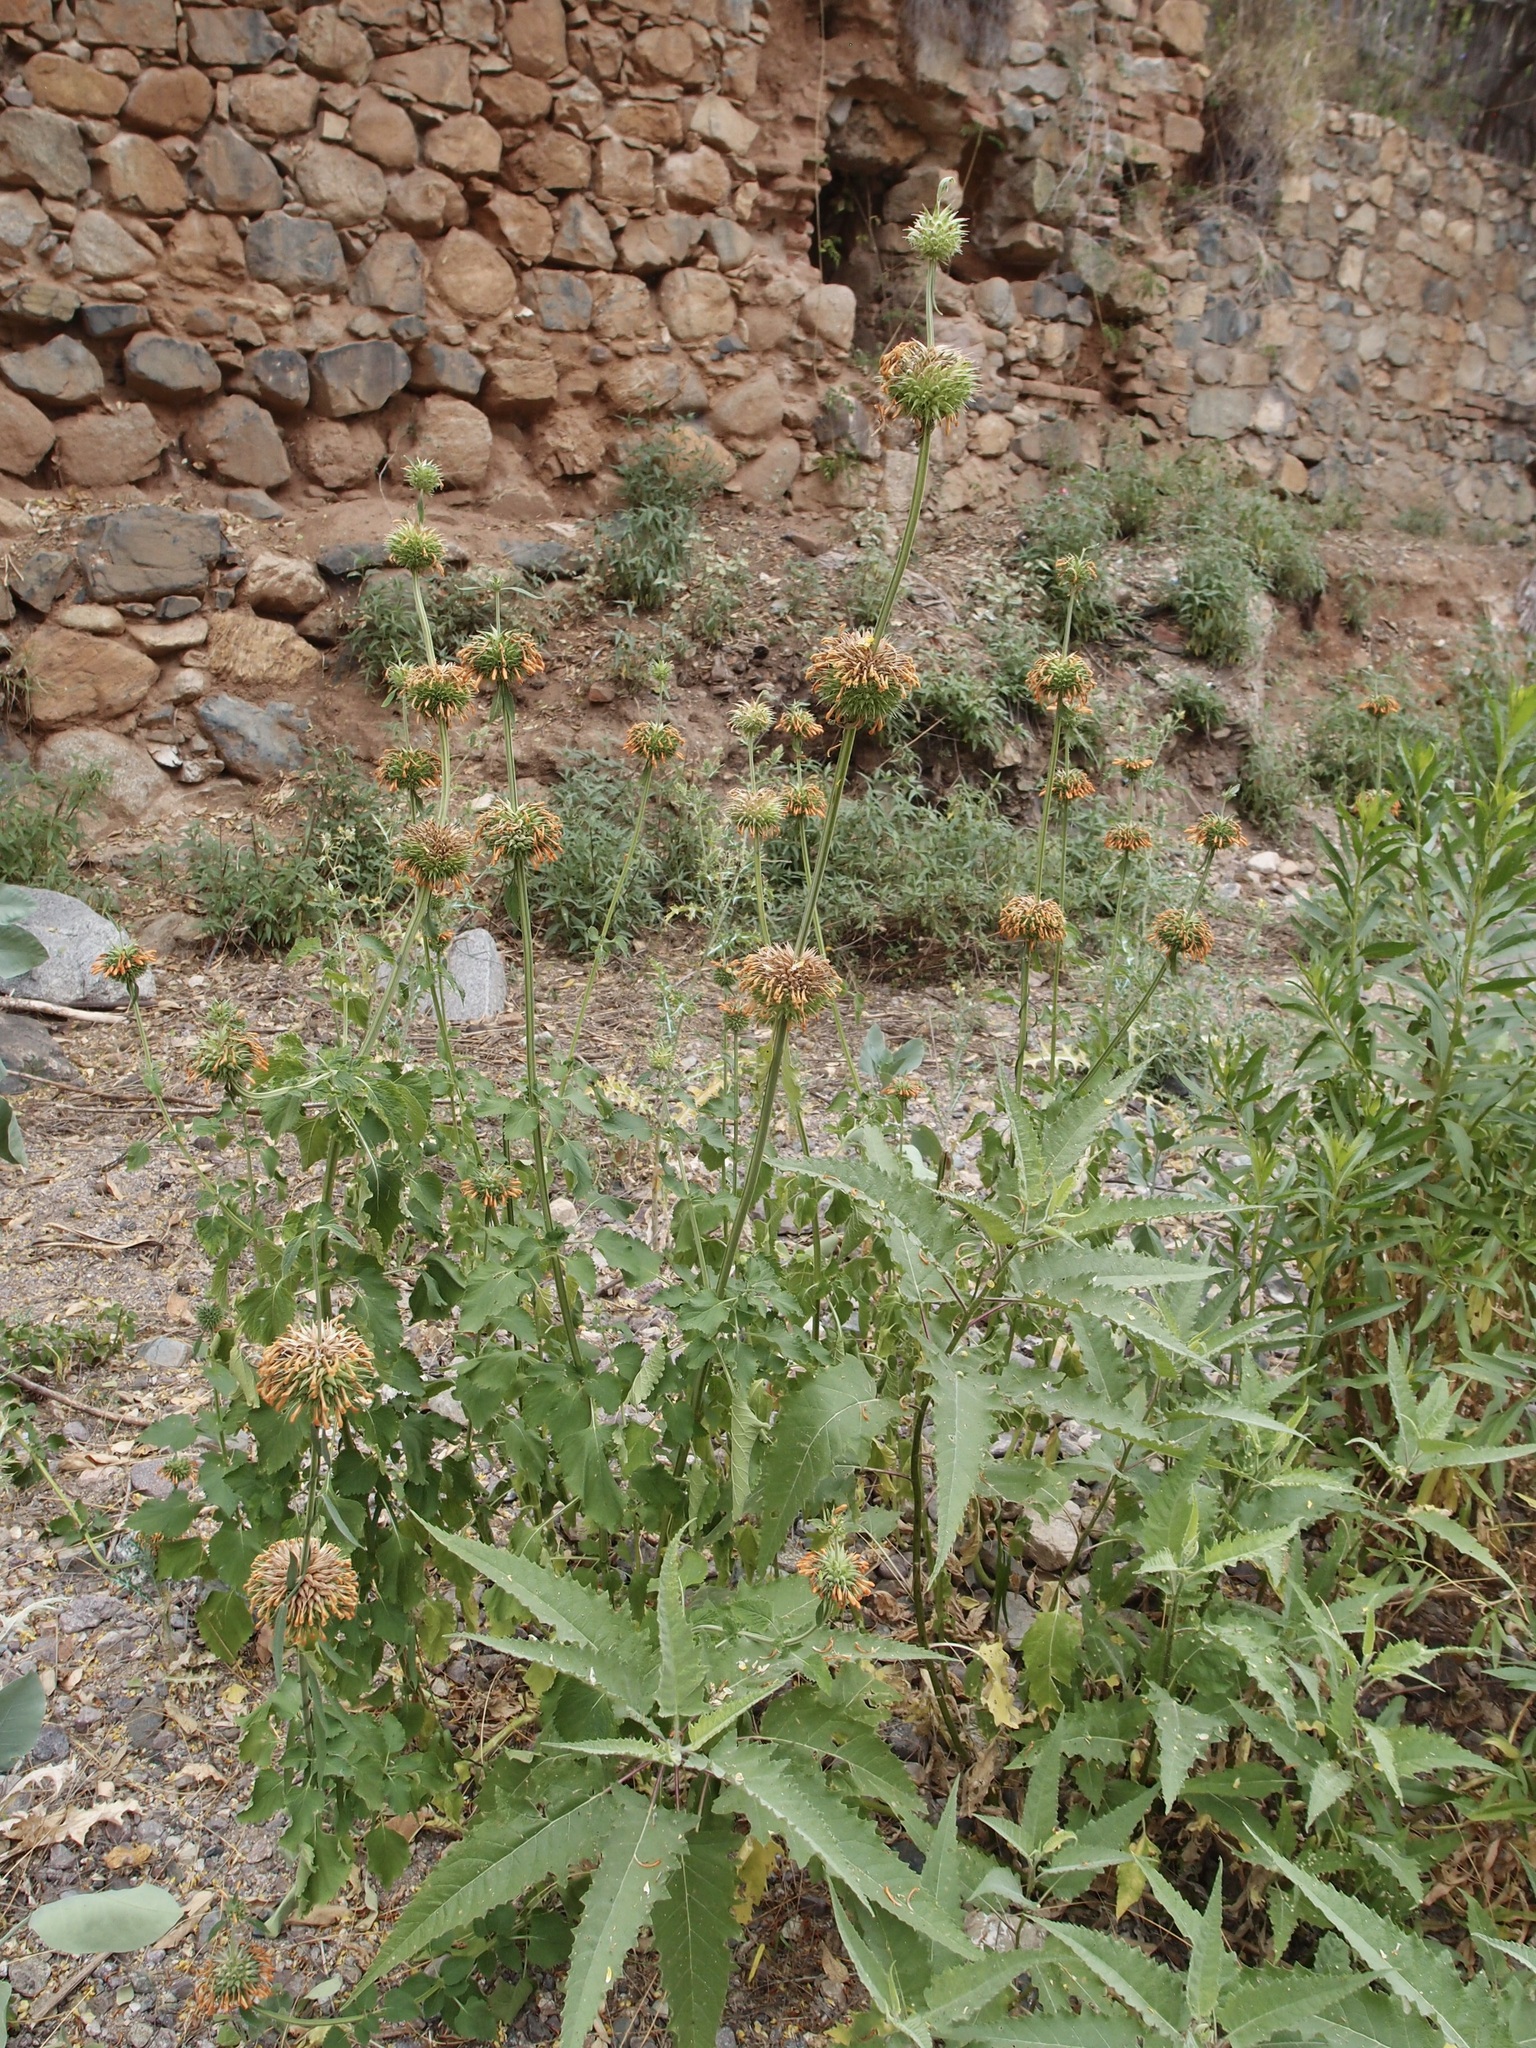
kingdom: Plantae
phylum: Tracheophyta
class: Magnoliopsida
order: Lamiales
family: Lamiaceae
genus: Leonotis
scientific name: Leonotis nepetifolia
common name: Christmas candlestick
